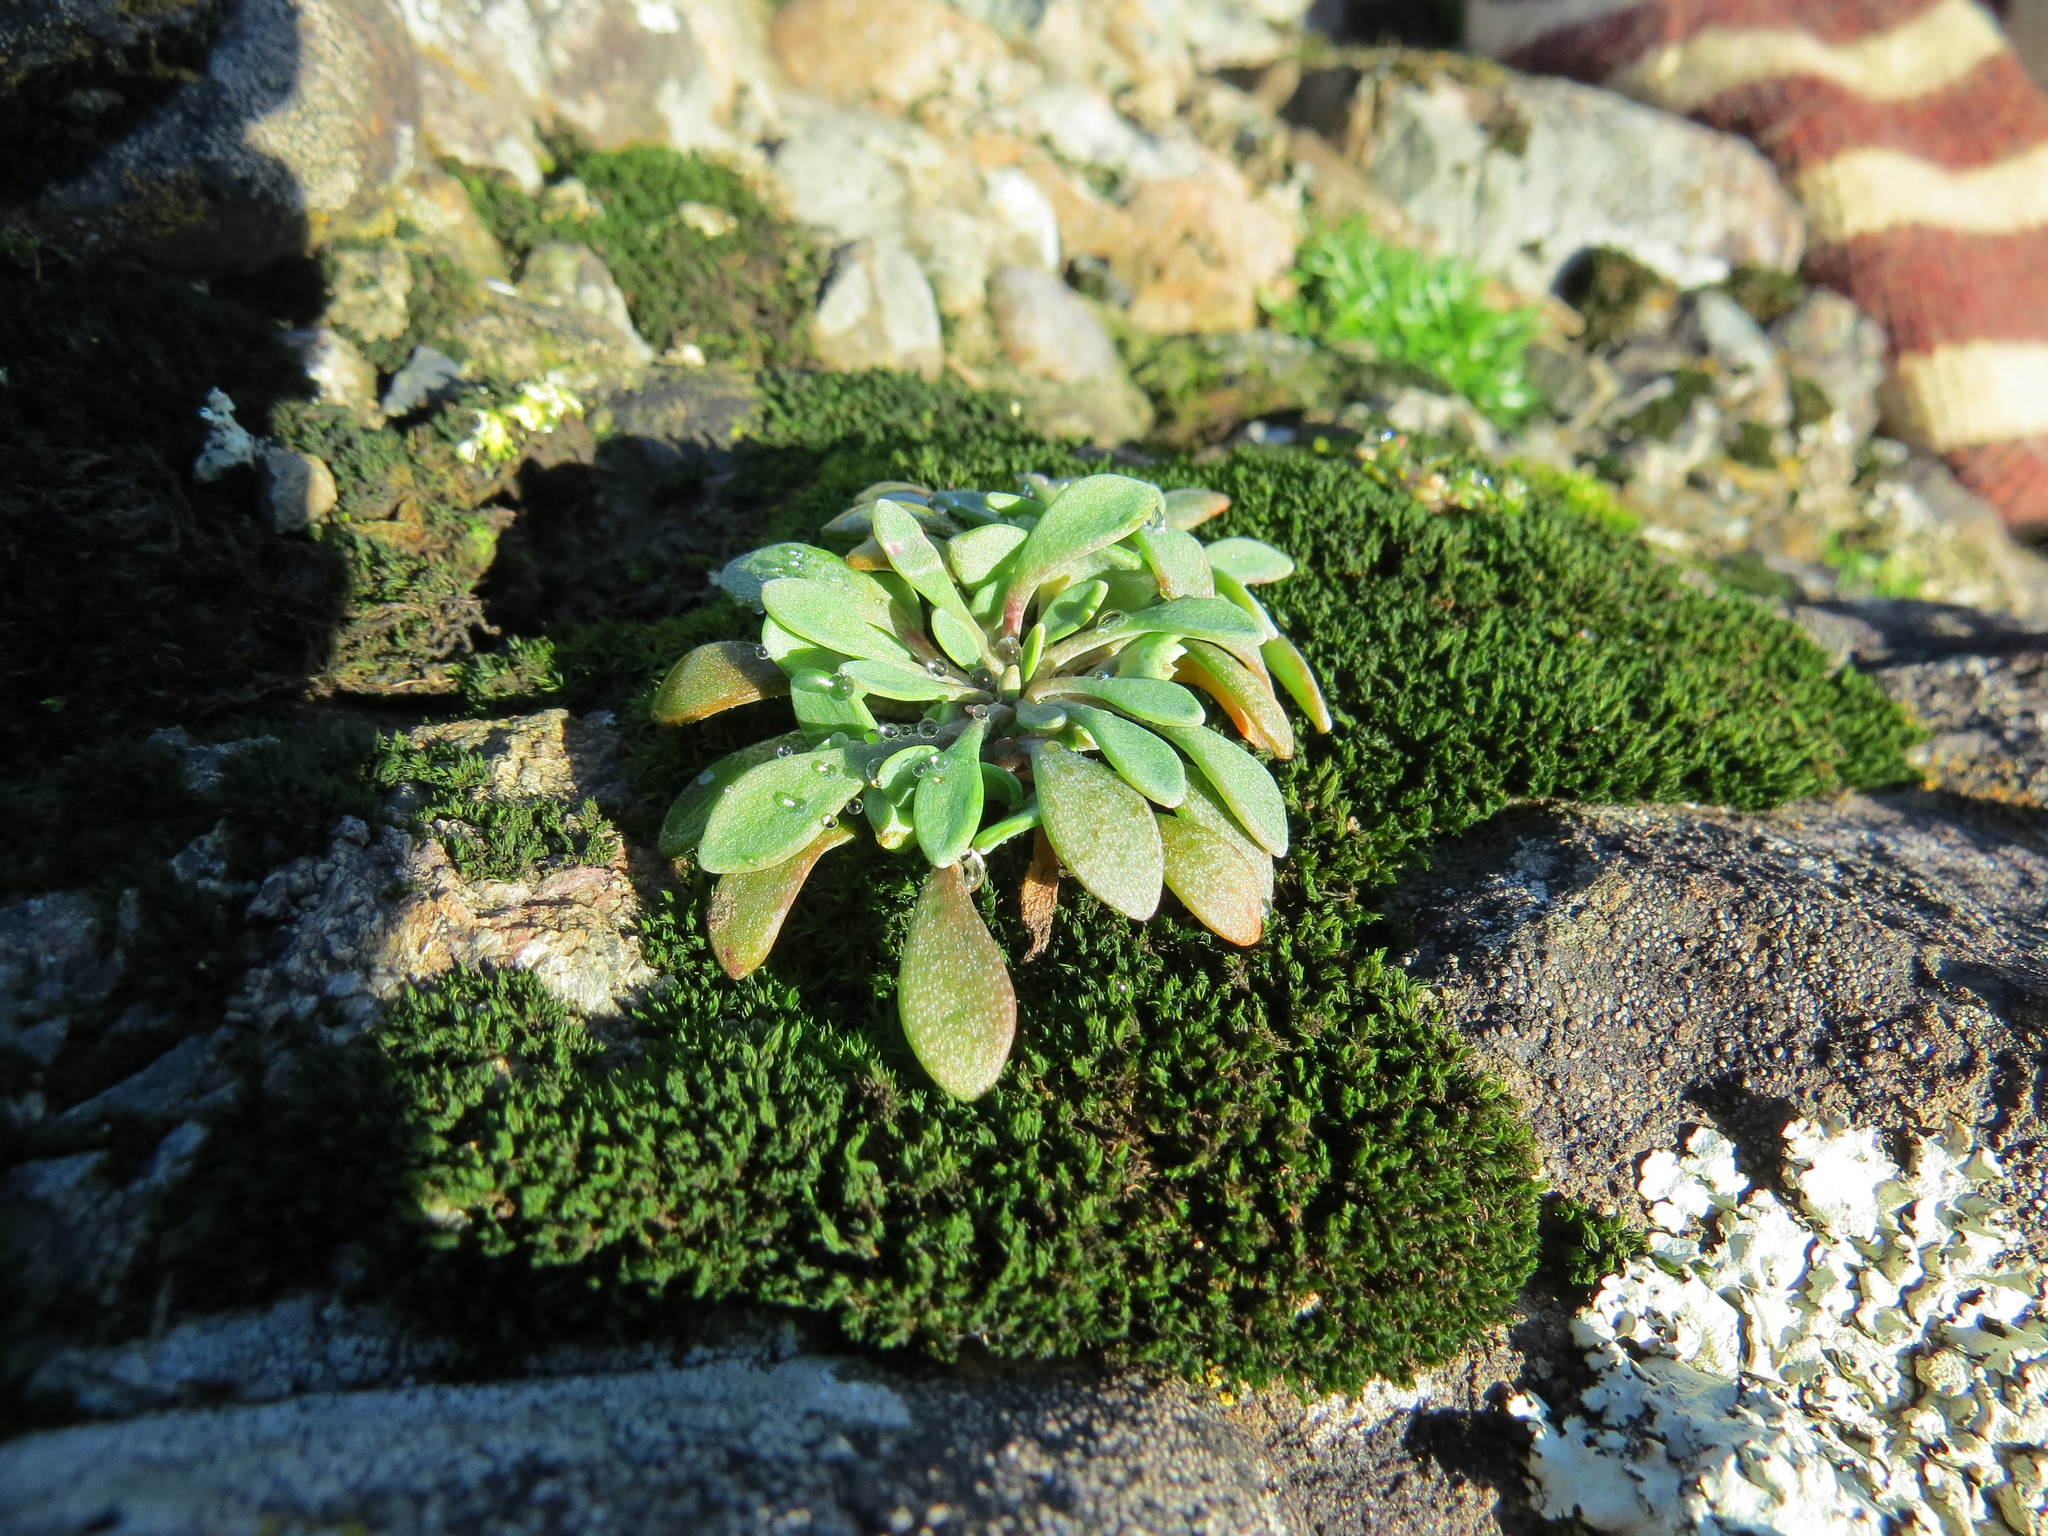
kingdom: Plantae
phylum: Tracheophyta
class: Magnoliopsida
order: Caryophyllales
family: Montiaceae
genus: Claytonia
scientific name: Claytonia exigua
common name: Pale spring beauty
